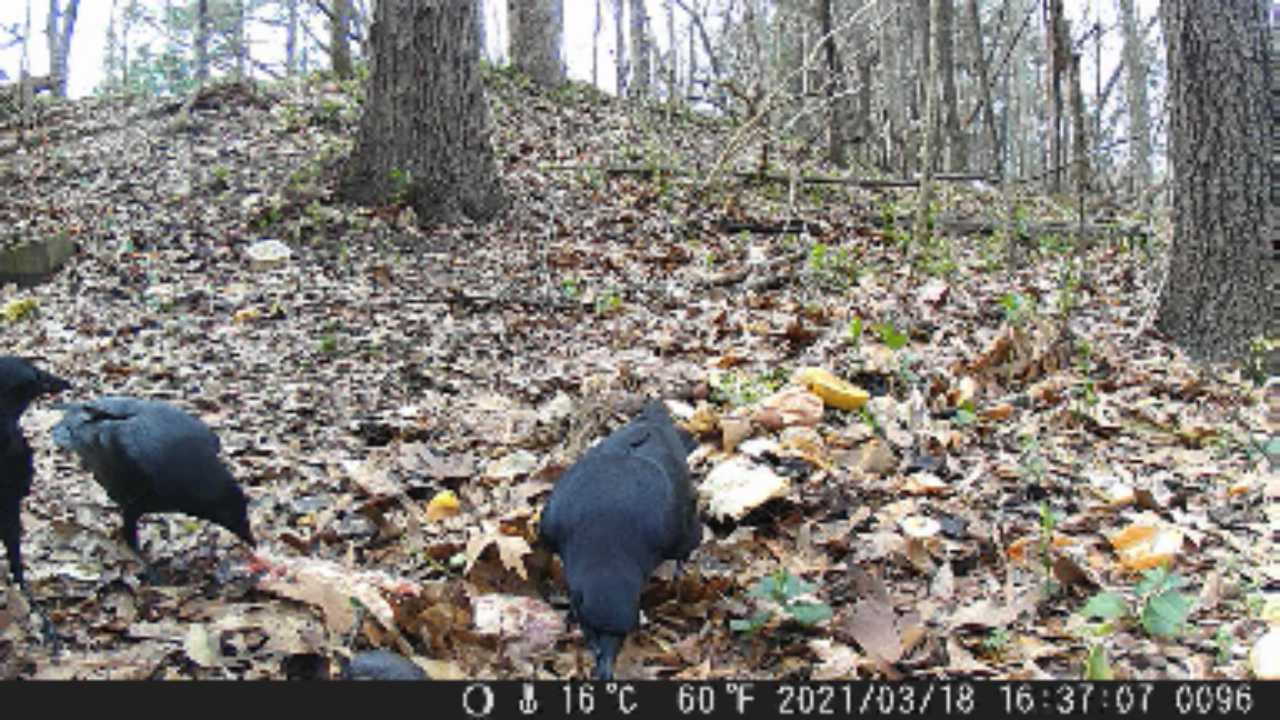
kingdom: Animalia
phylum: Chordata
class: Aves
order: Passeriformes
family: Corvidae
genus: Corvus
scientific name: Corvus
